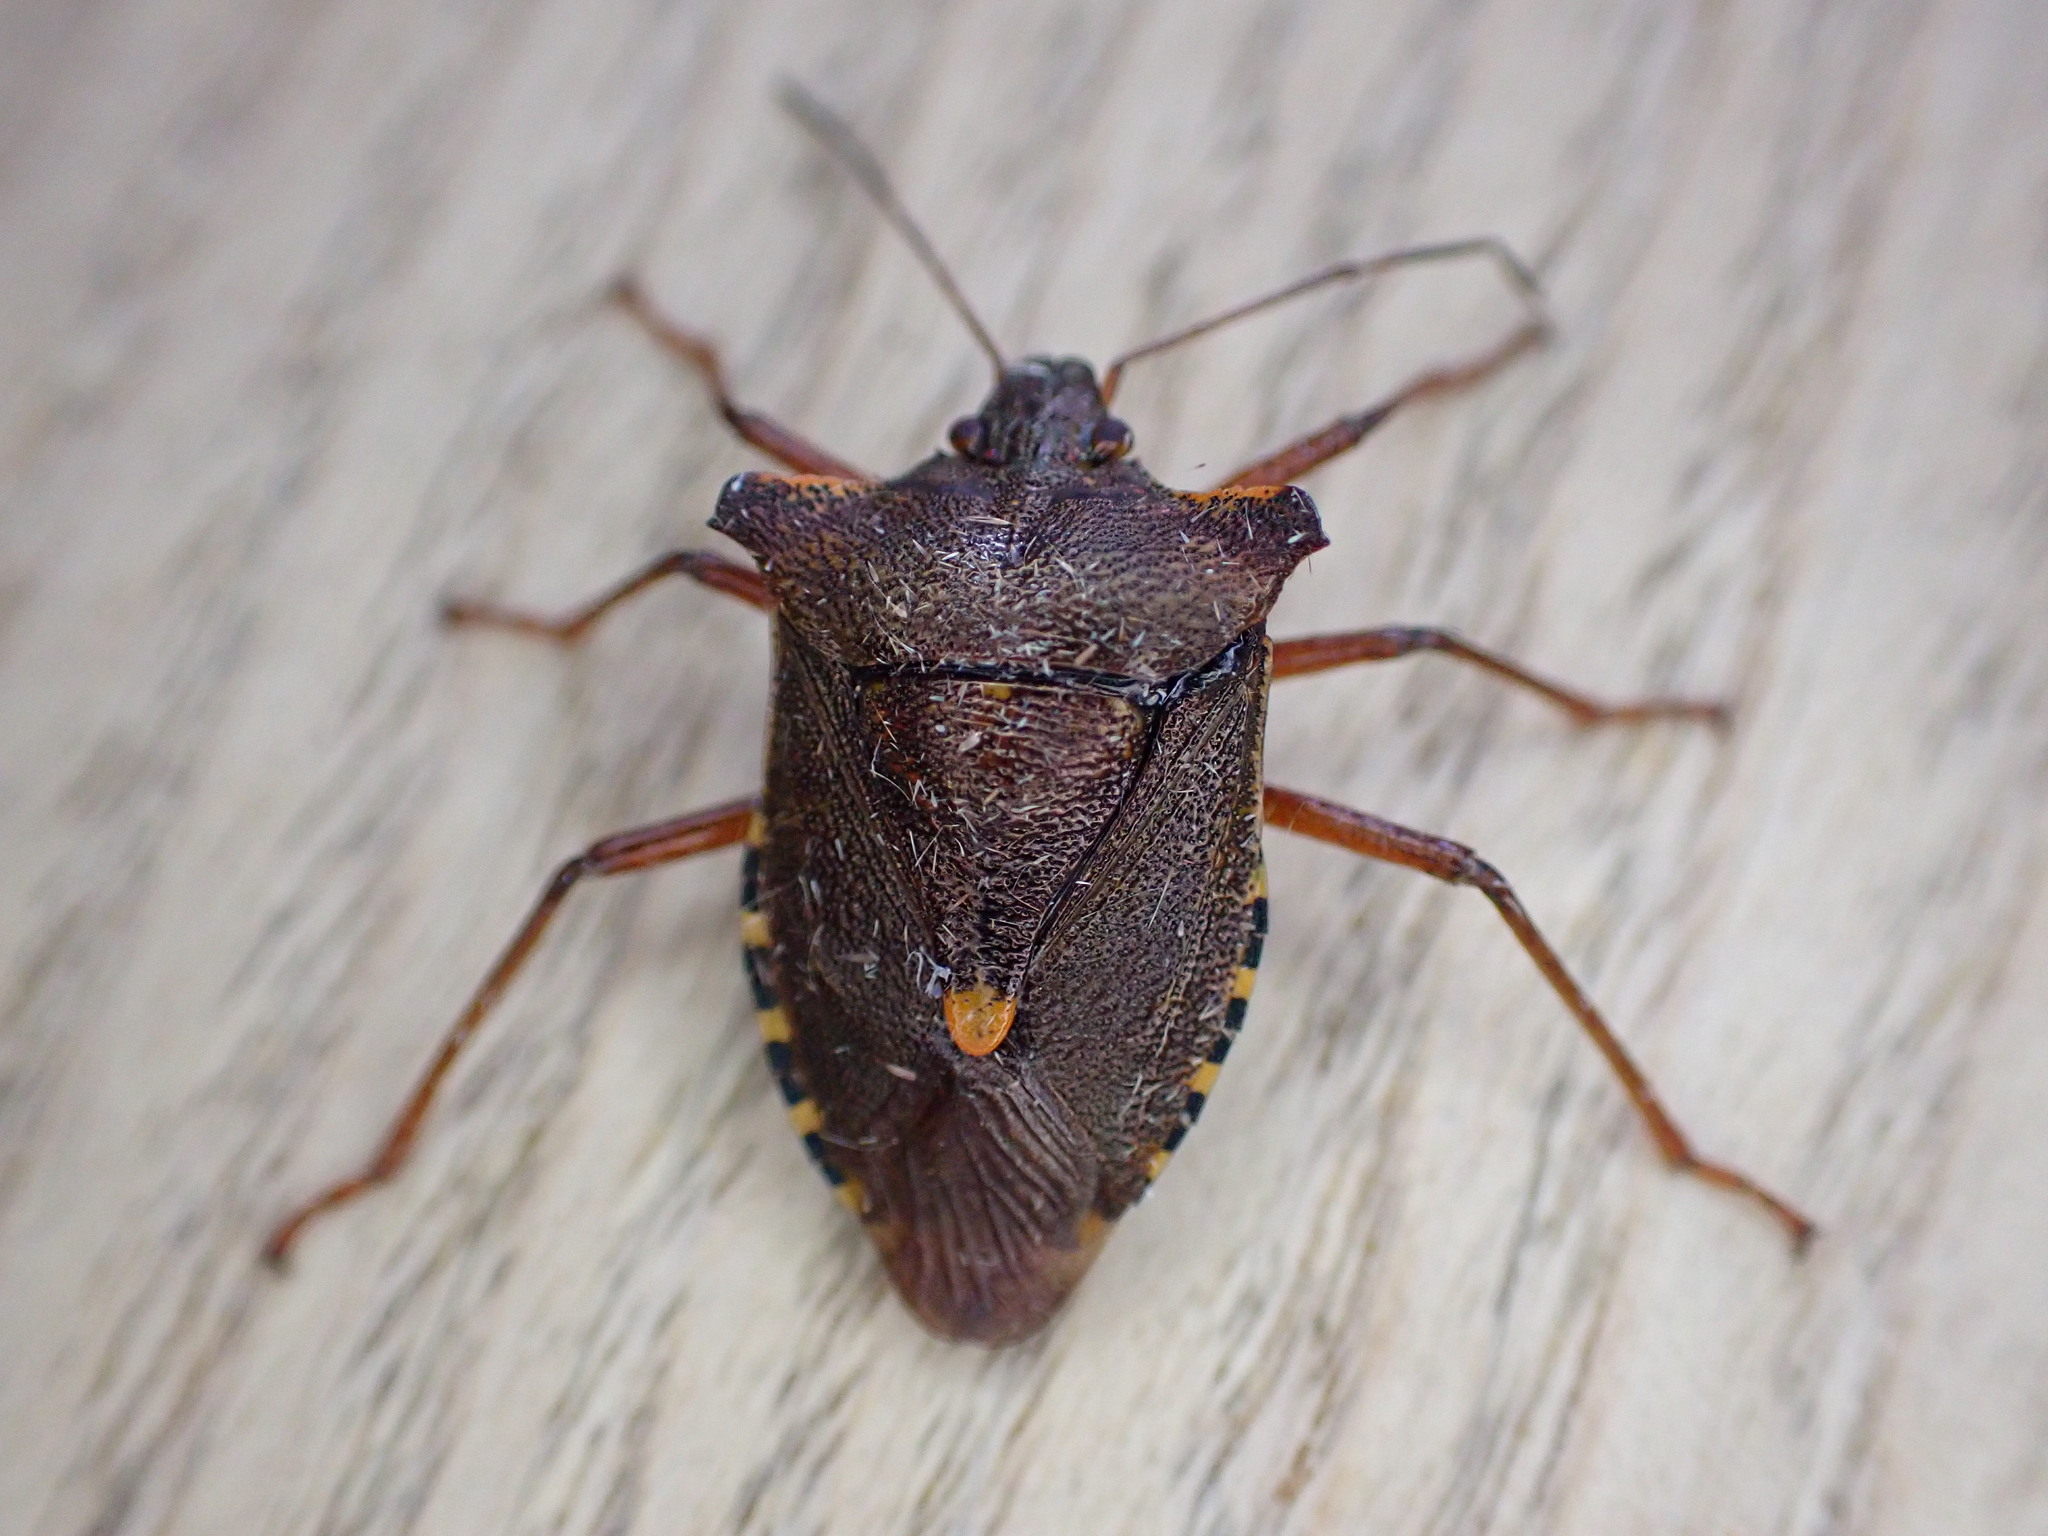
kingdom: Animalia
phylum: Arthropoda
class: Insecta
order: Hemiptera
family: Pentatomidae
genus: Pentatoma
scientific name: Pentatoma rufipes
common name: Forest bug
